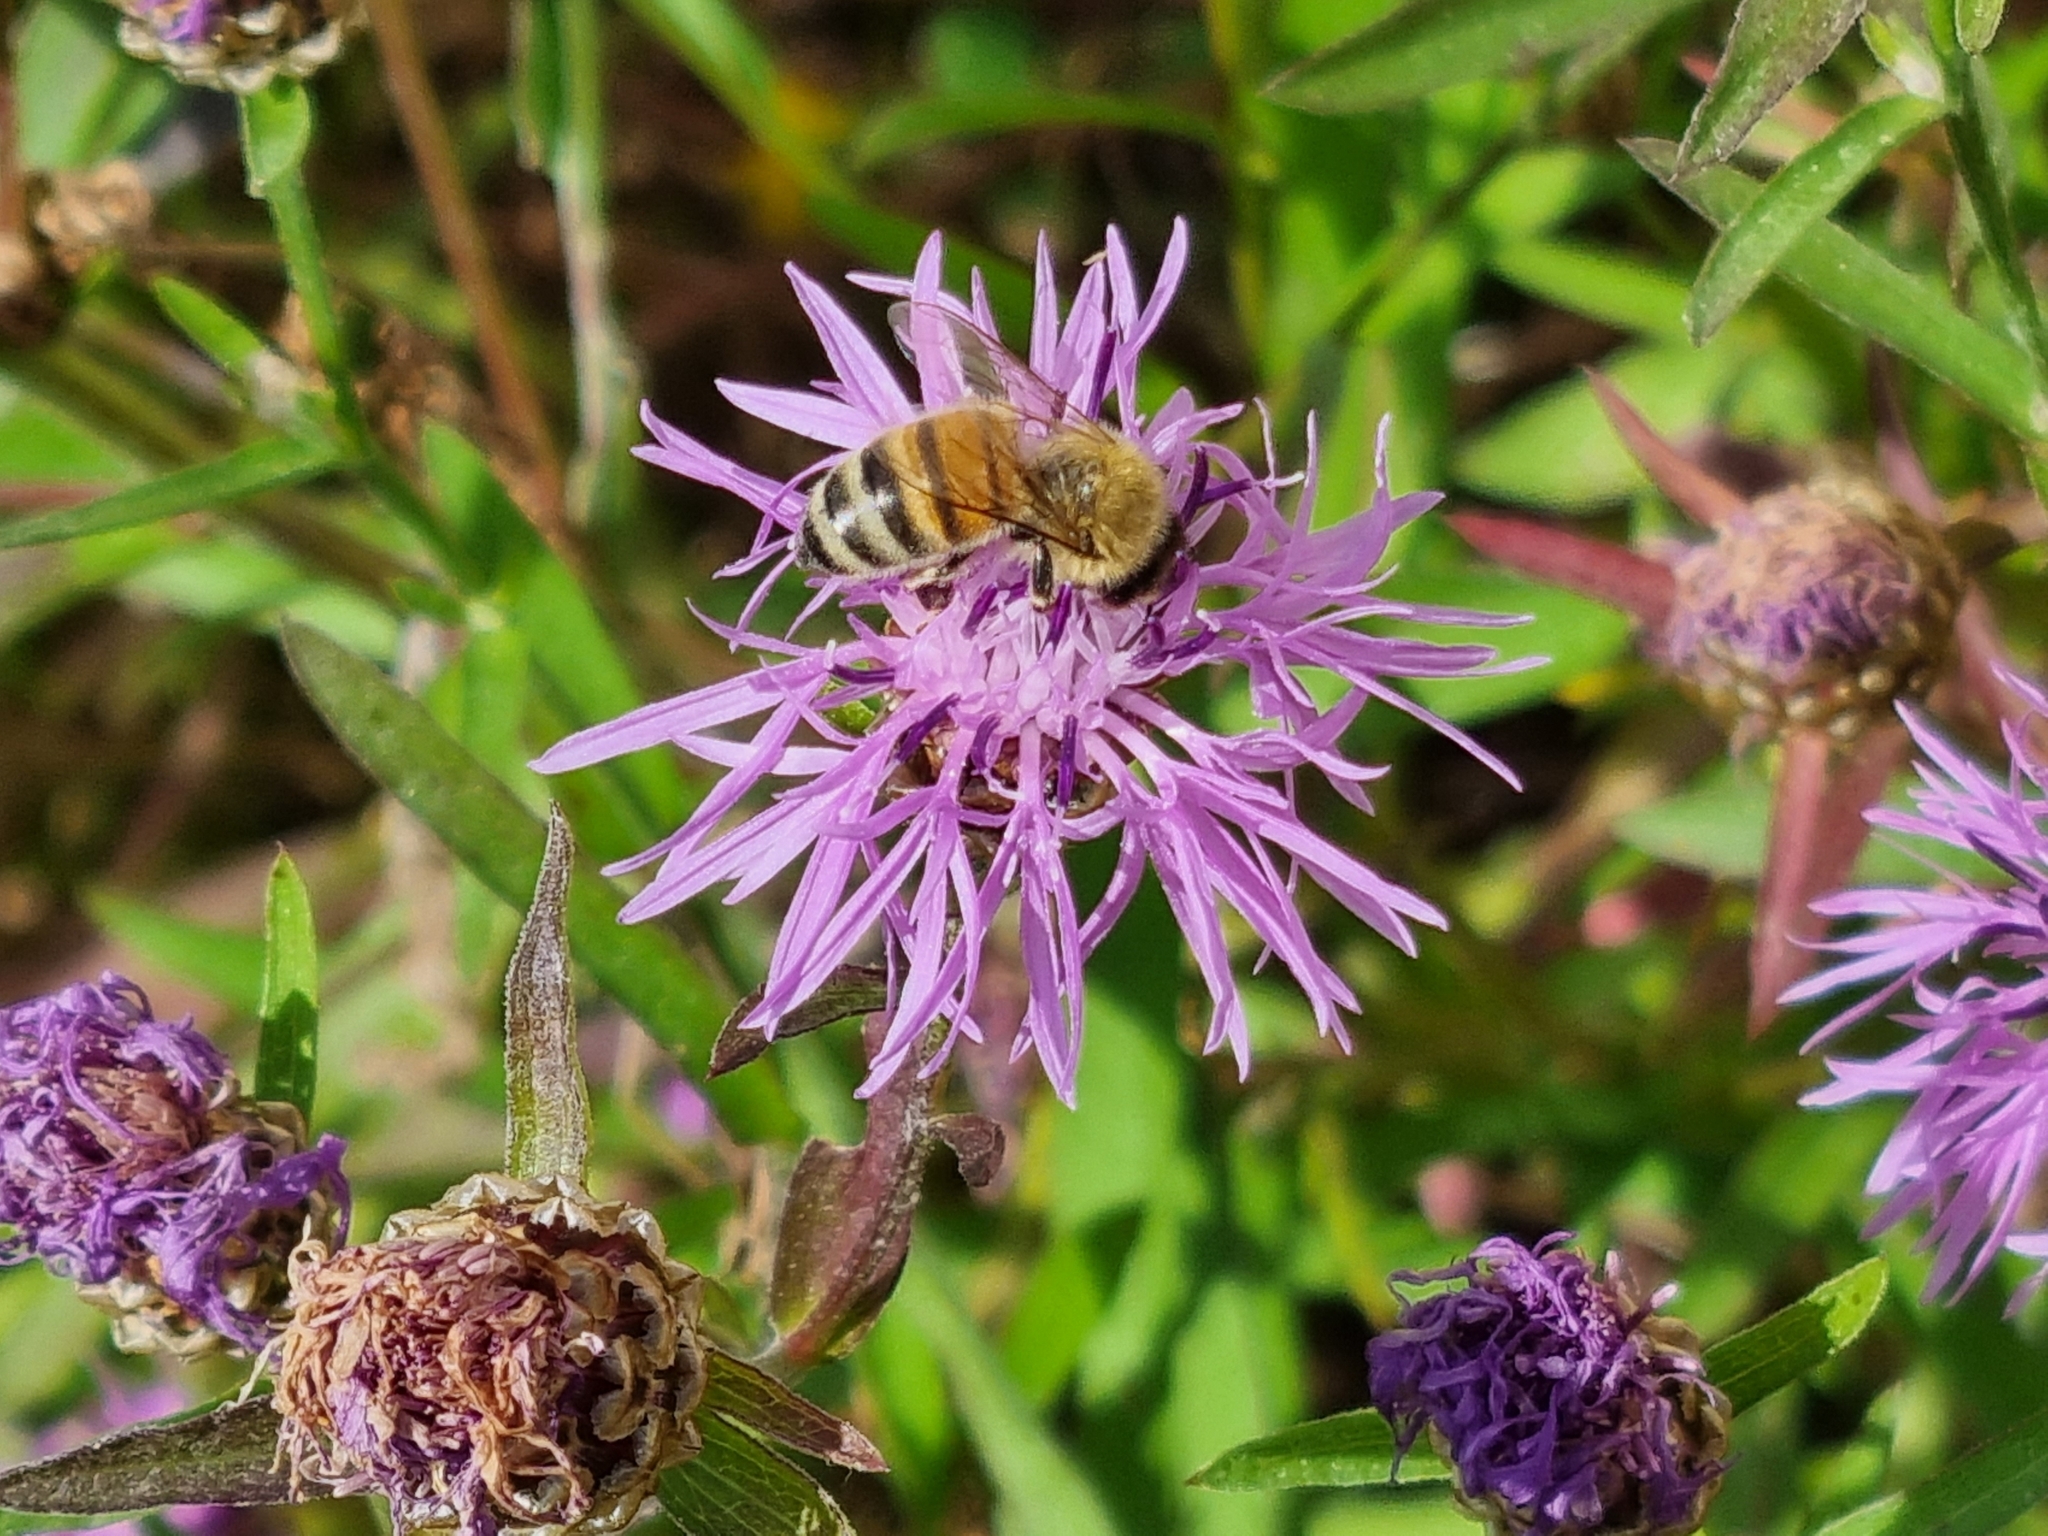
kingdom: Animalia
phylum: Arthropoda
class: Insecta
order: Hymenoptera
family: Apidae
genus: Apis
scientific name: Apis mellifera
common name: Honey bee
